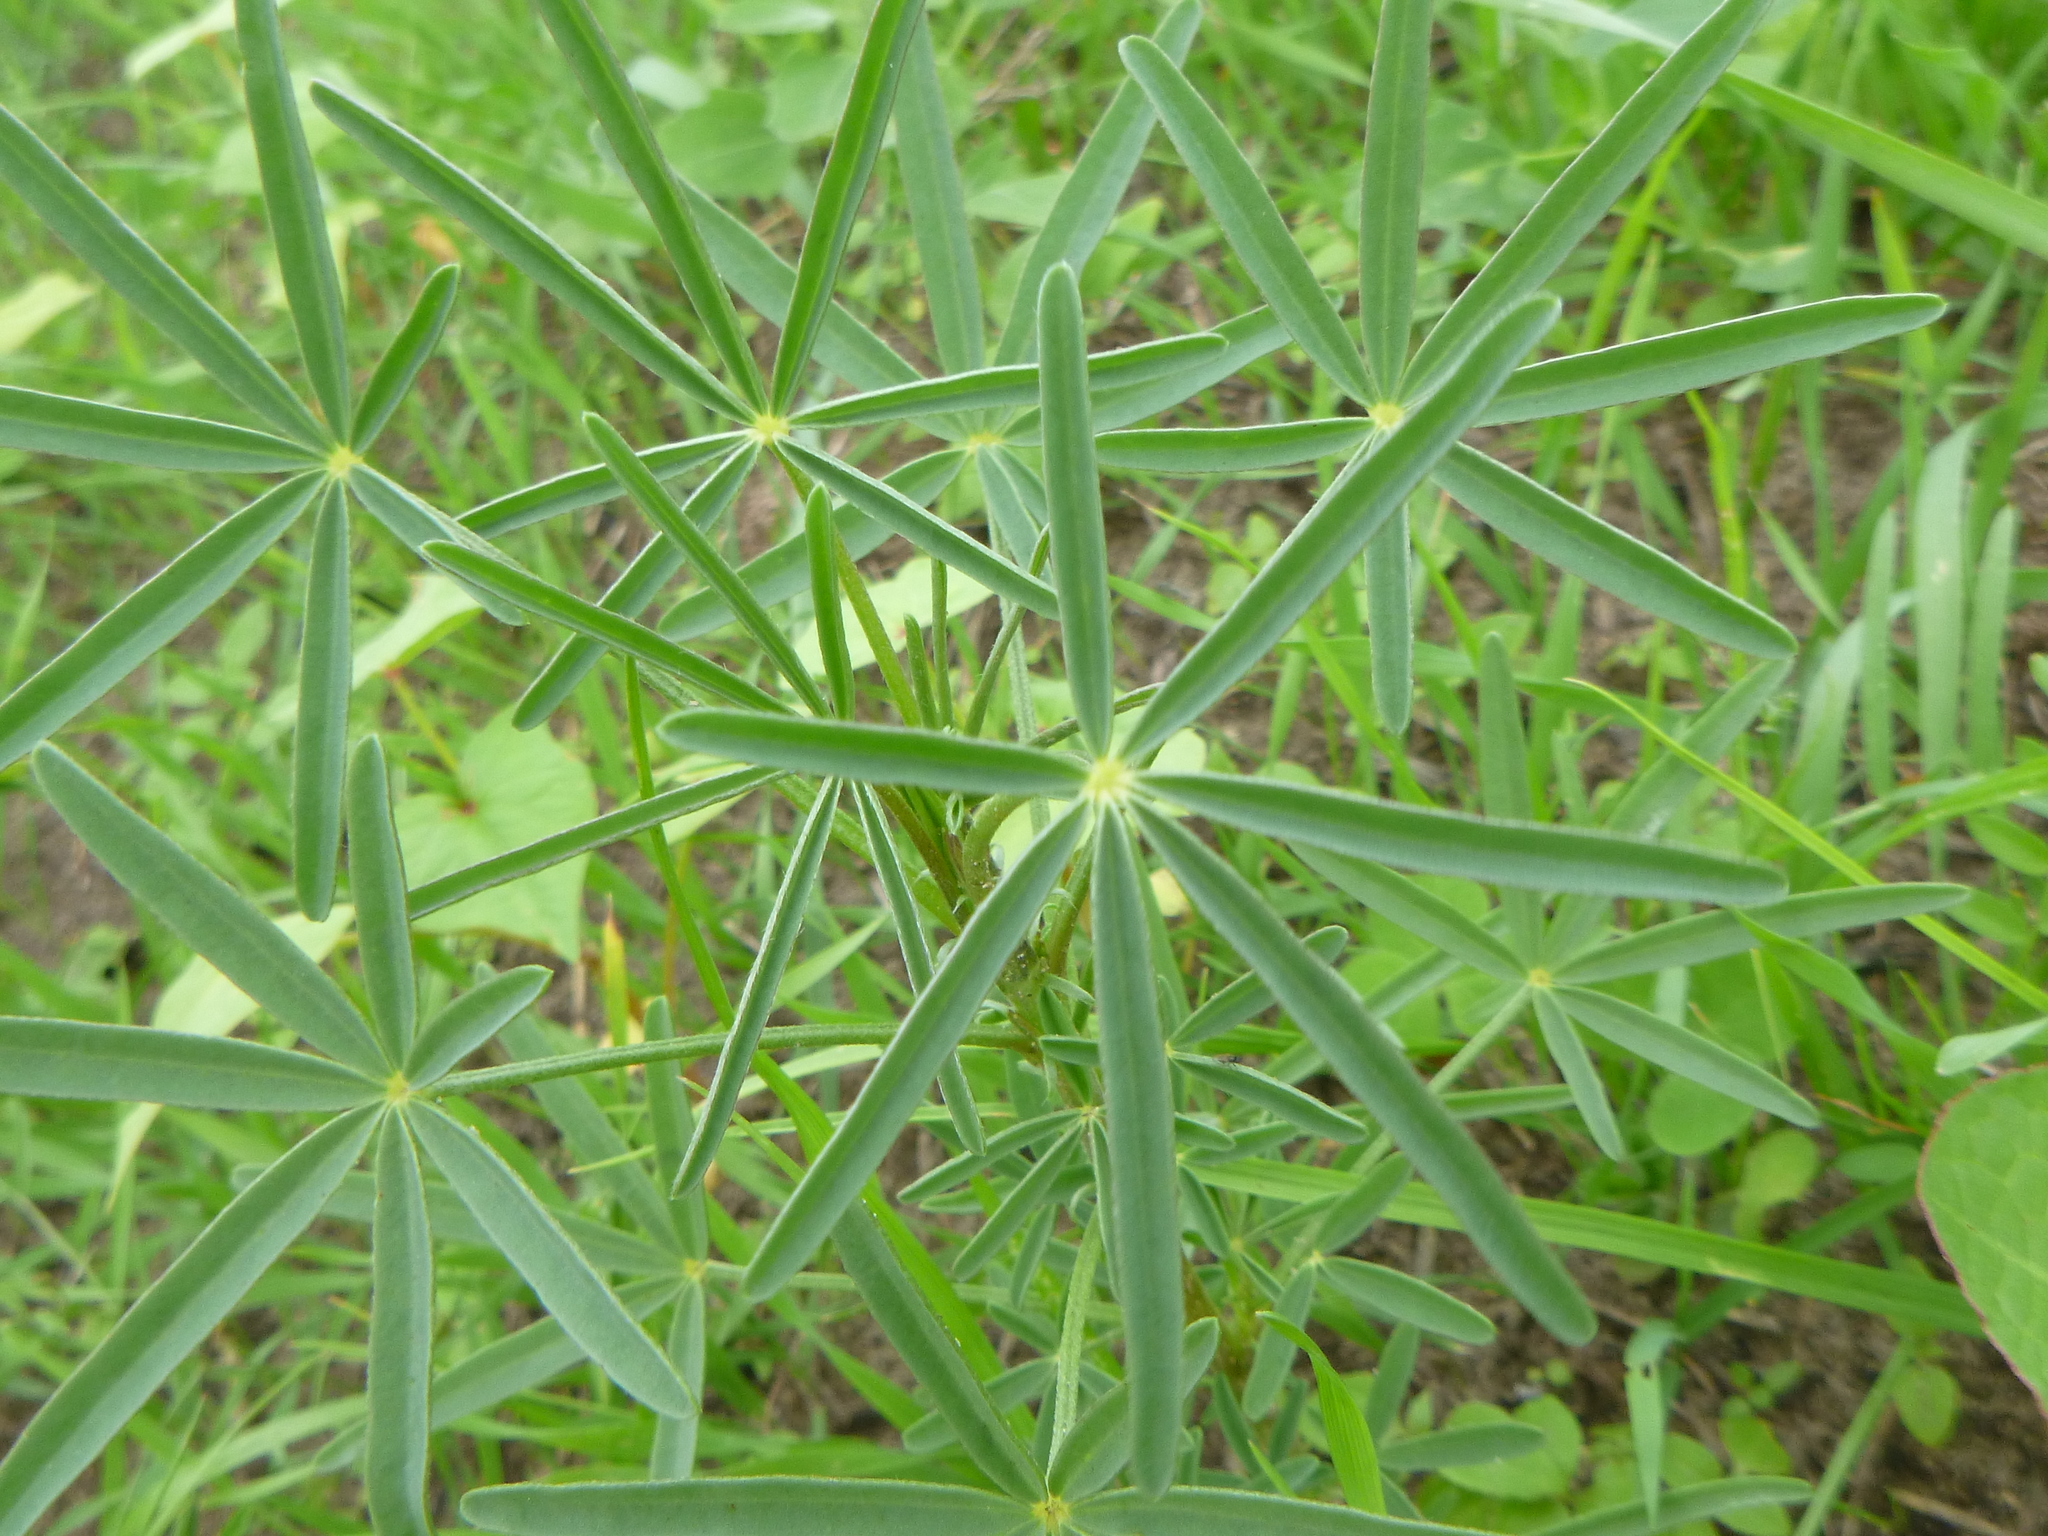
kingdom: Plantae
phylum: Tracheophyta
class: Magnoliopsida
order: Fabales
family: Fabaceae
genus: Lupinus
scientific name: Lupinus angustifolius
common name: Narrow-leaved lupin
